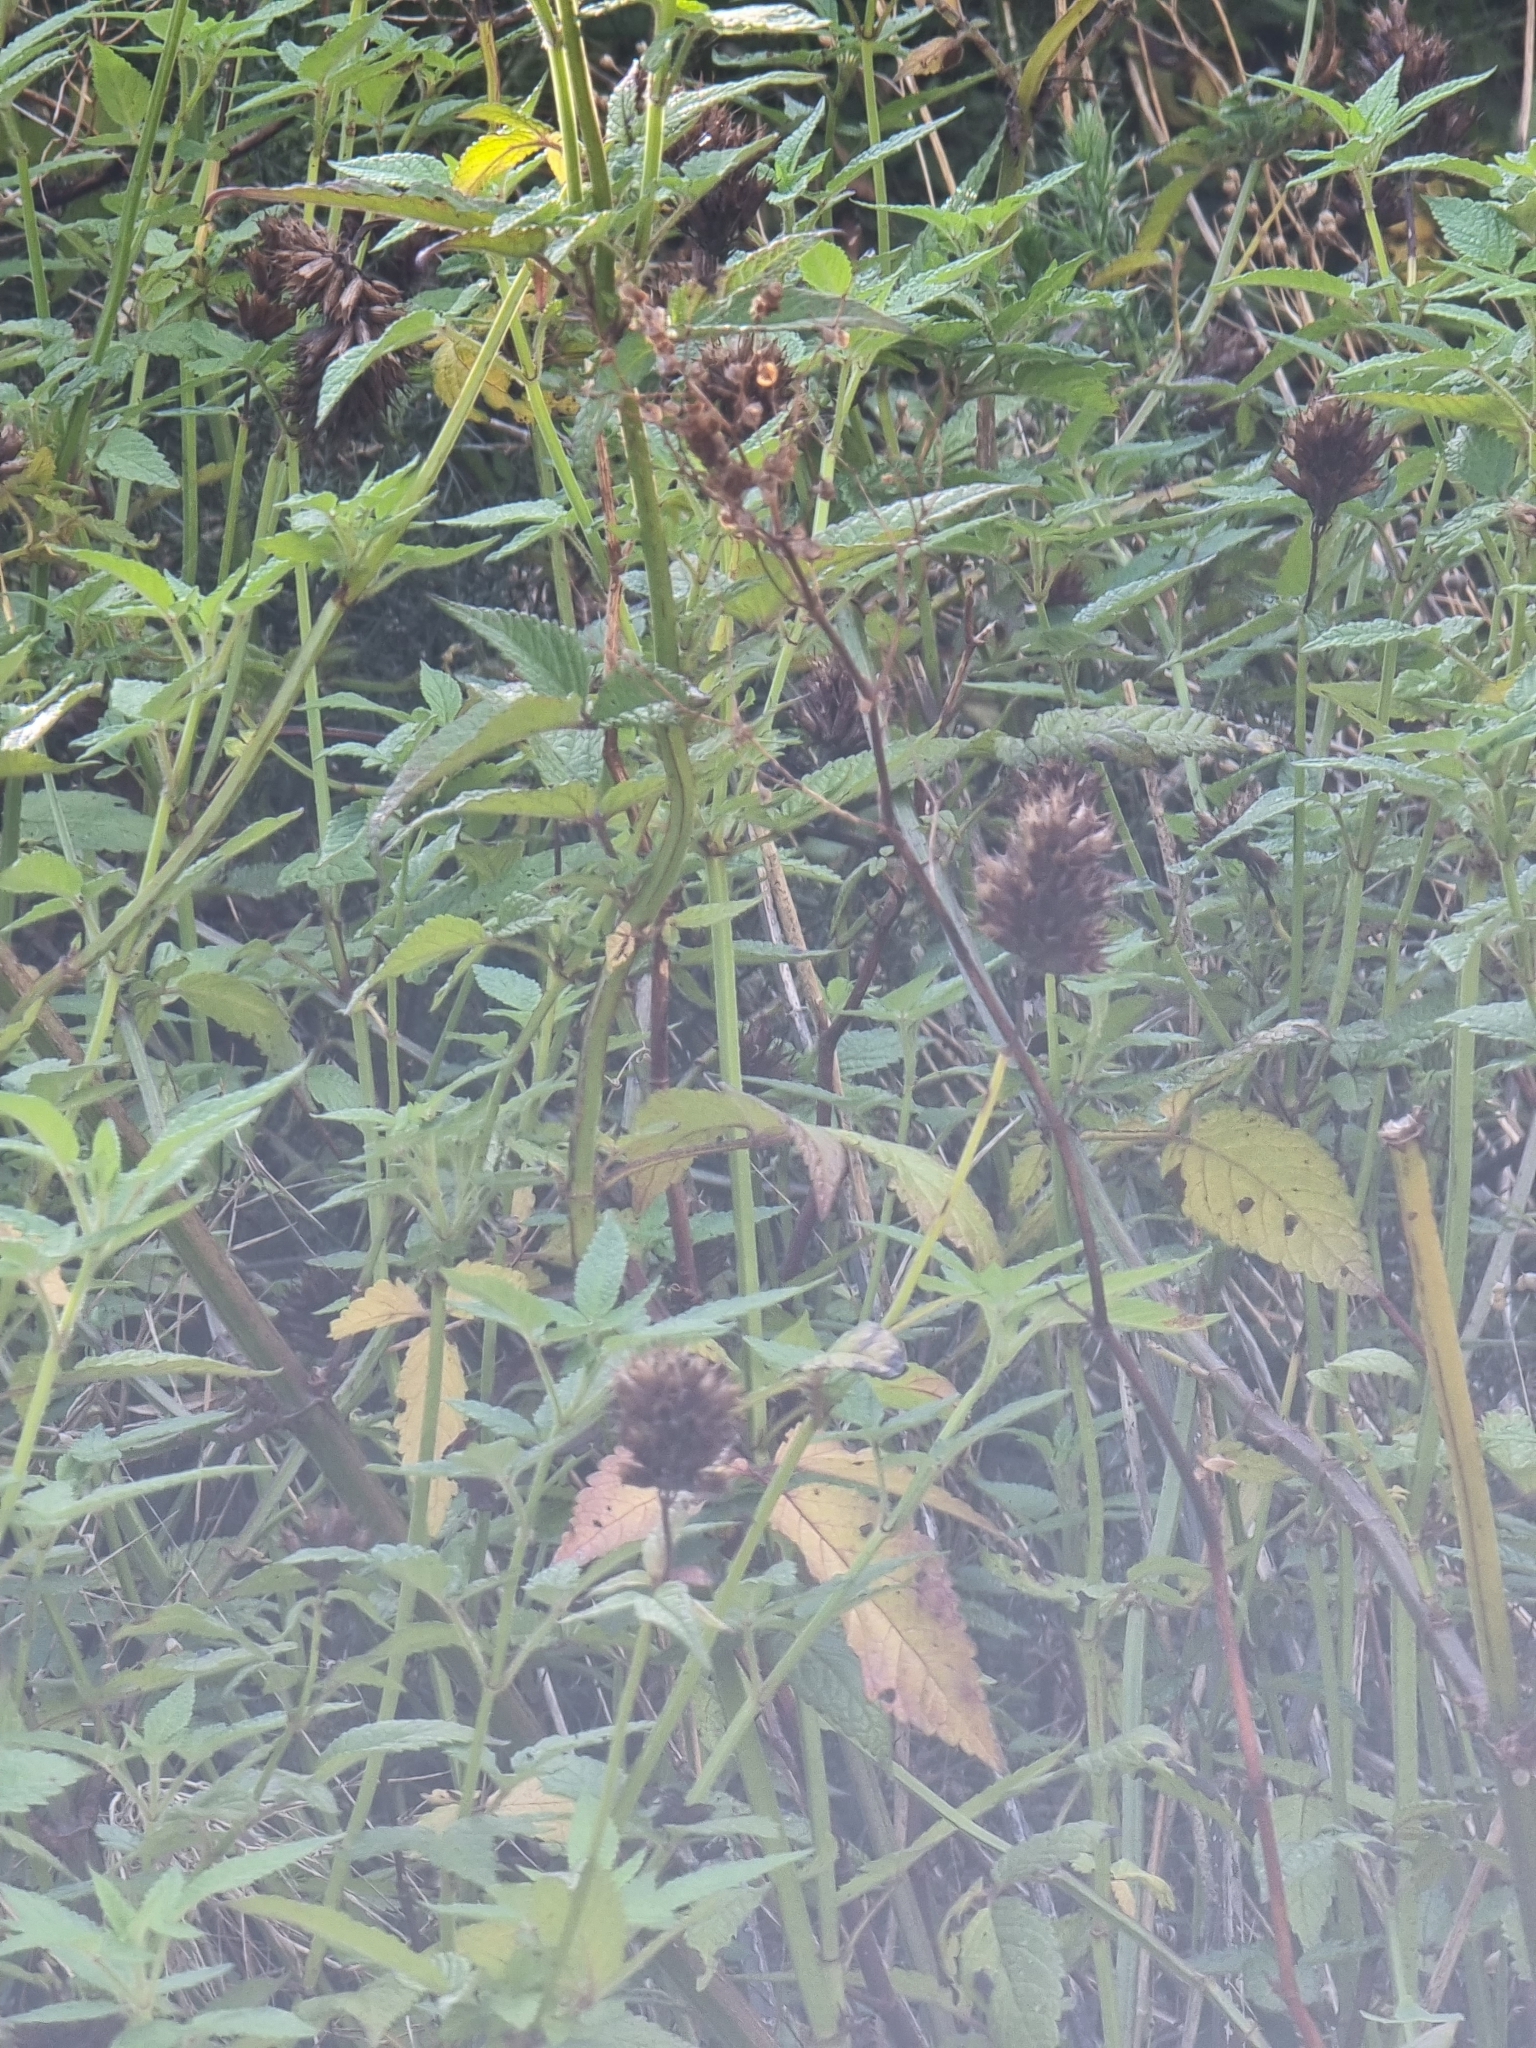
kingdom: Plantae
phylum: Tracheophyta
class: Magnoliopsida
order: Lamiales
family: Lamiaceae
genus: Cedronella
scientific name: Cedronella canariensis
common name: Canary islands balm
